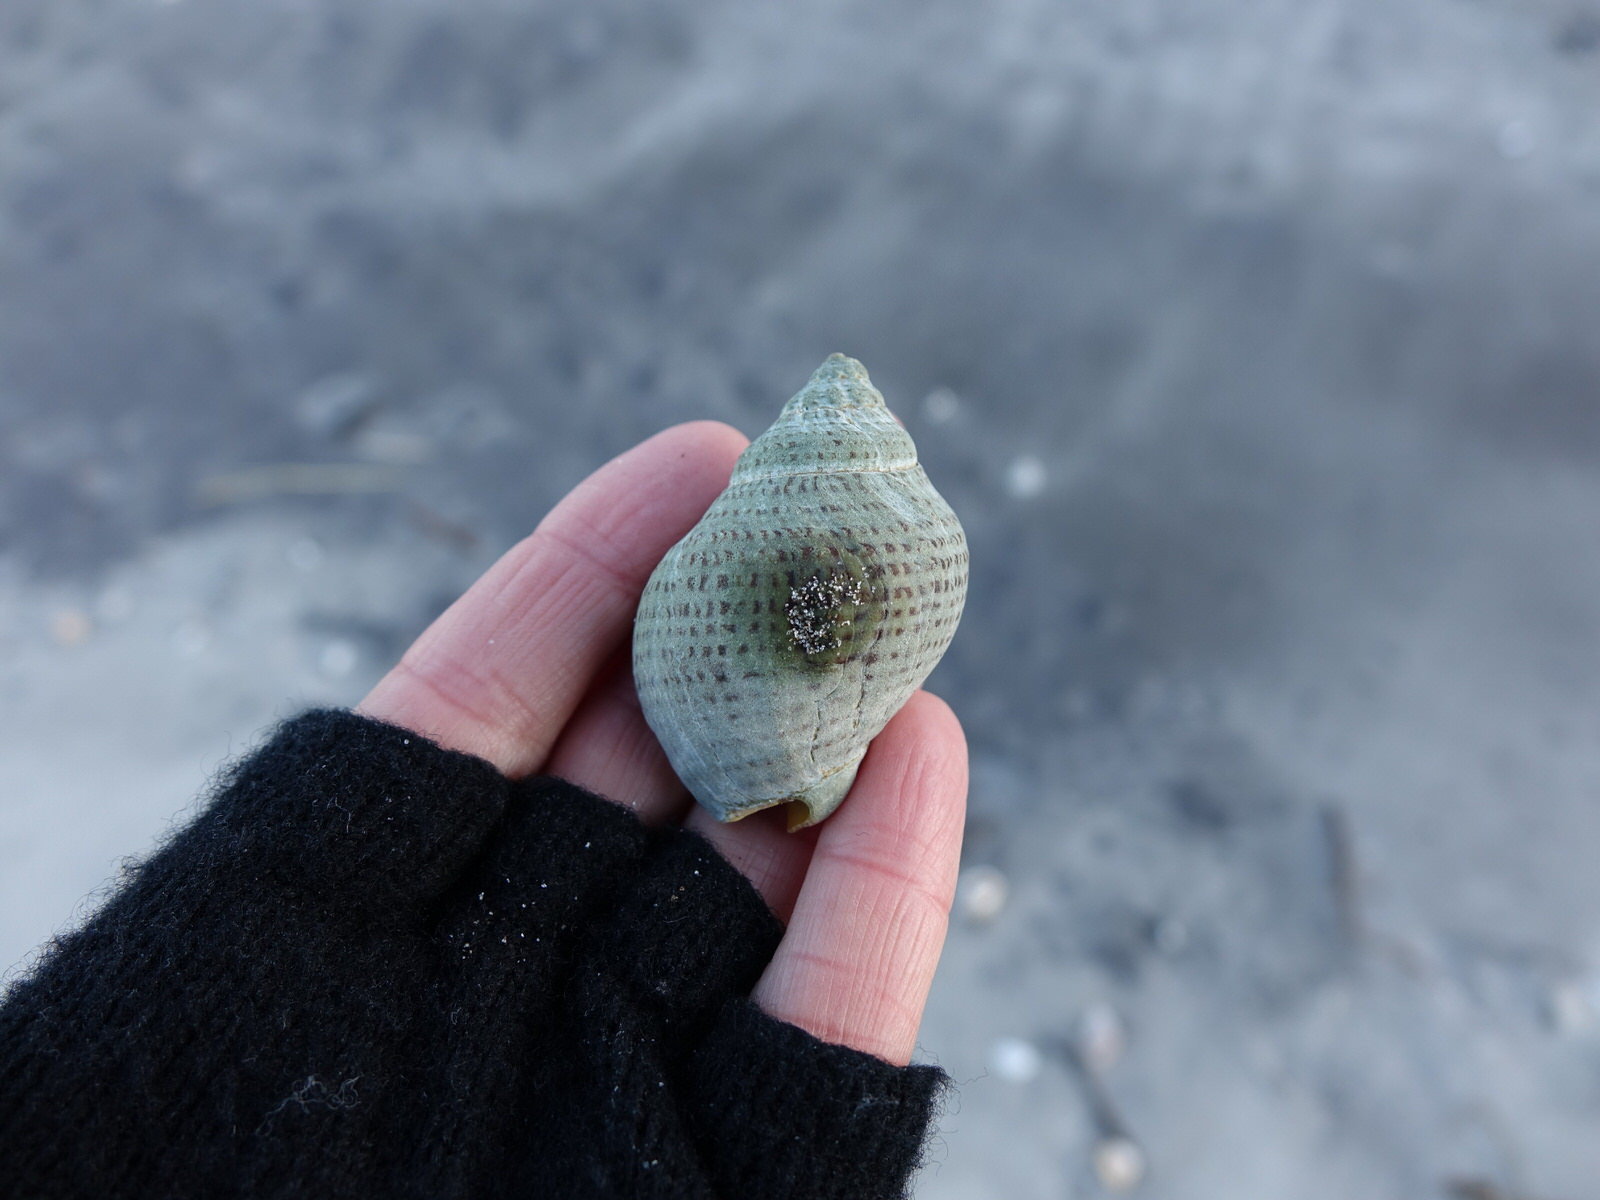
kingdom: Animalia
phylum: Mollusca
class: Gastropoda
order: Neogastropoda
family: Cominellidae
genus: Cominella
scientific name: Cominella adspersa
